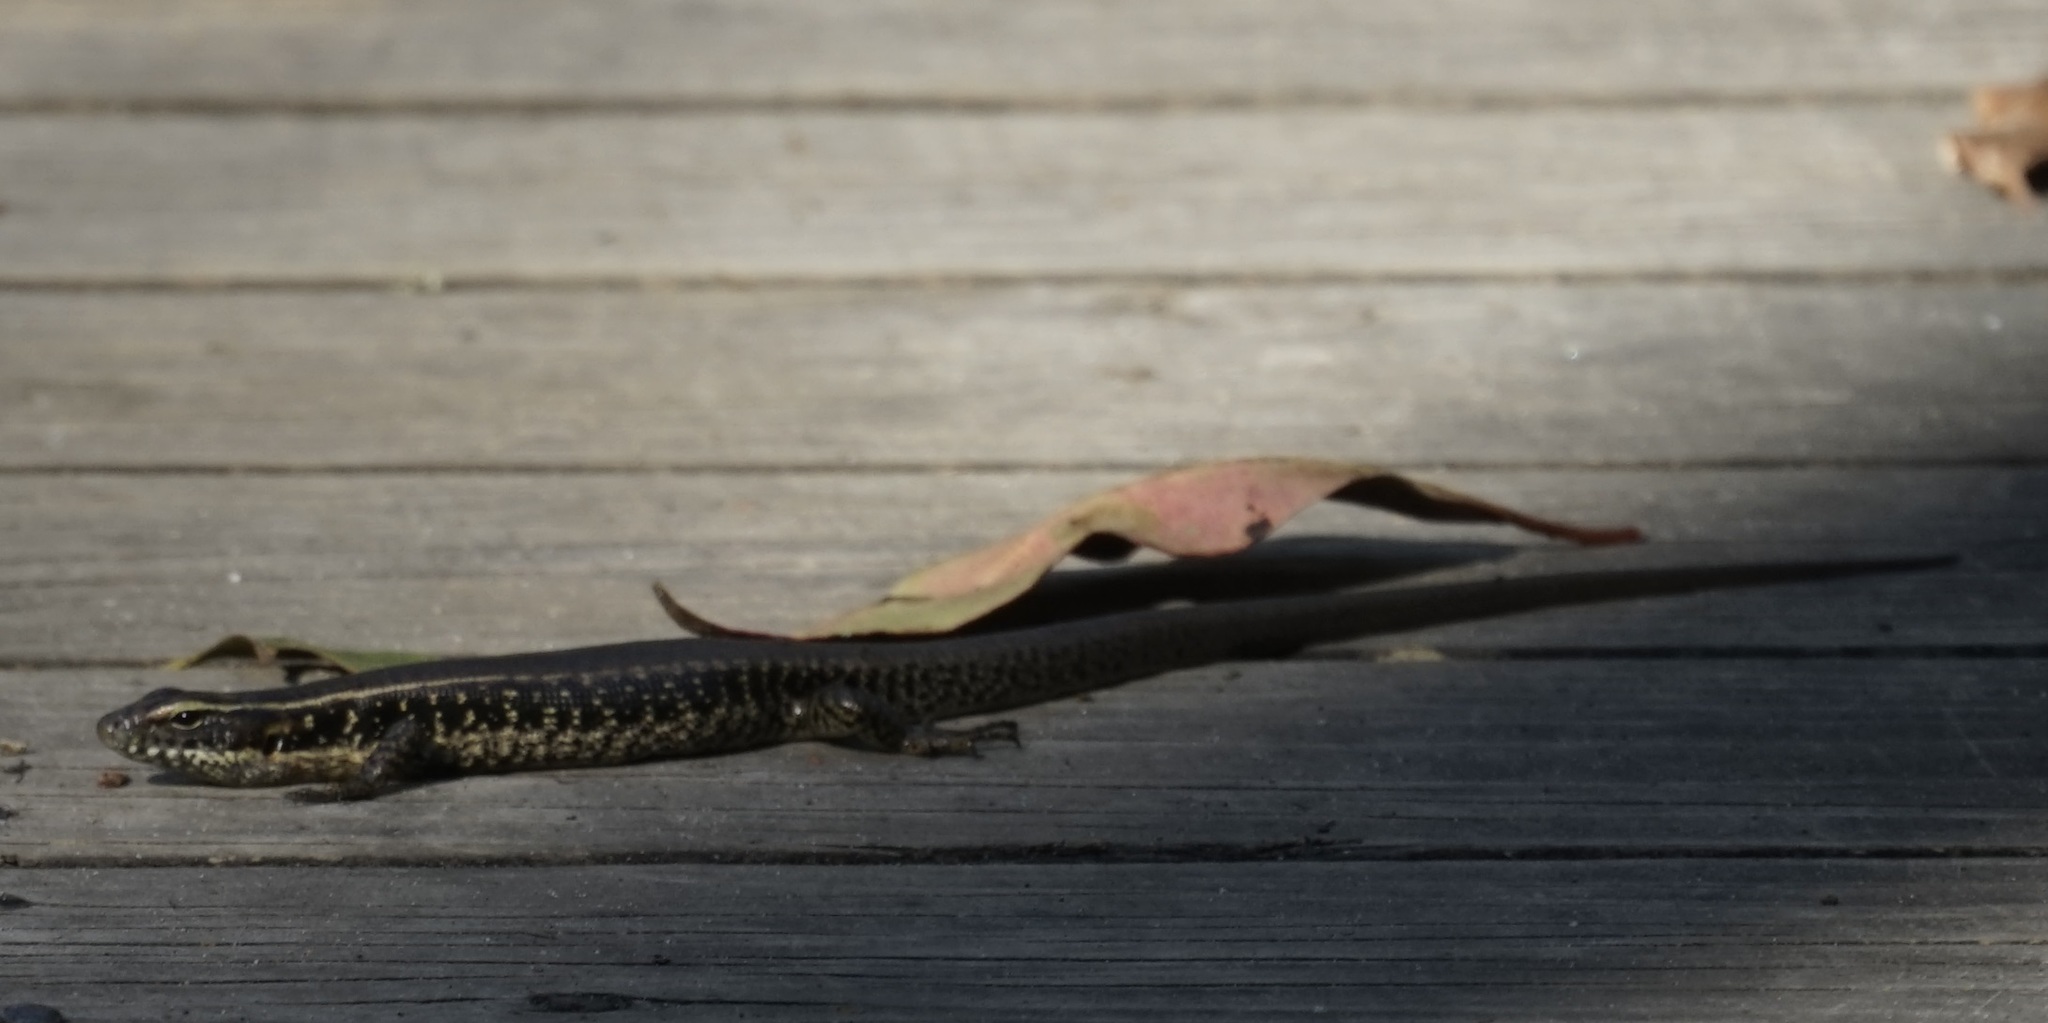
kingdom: Animalia
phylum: Chordata
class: Squamata
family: Scincidae
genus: Eulamprus
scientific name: Eulamprus quoyii
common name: Eastern water skink
